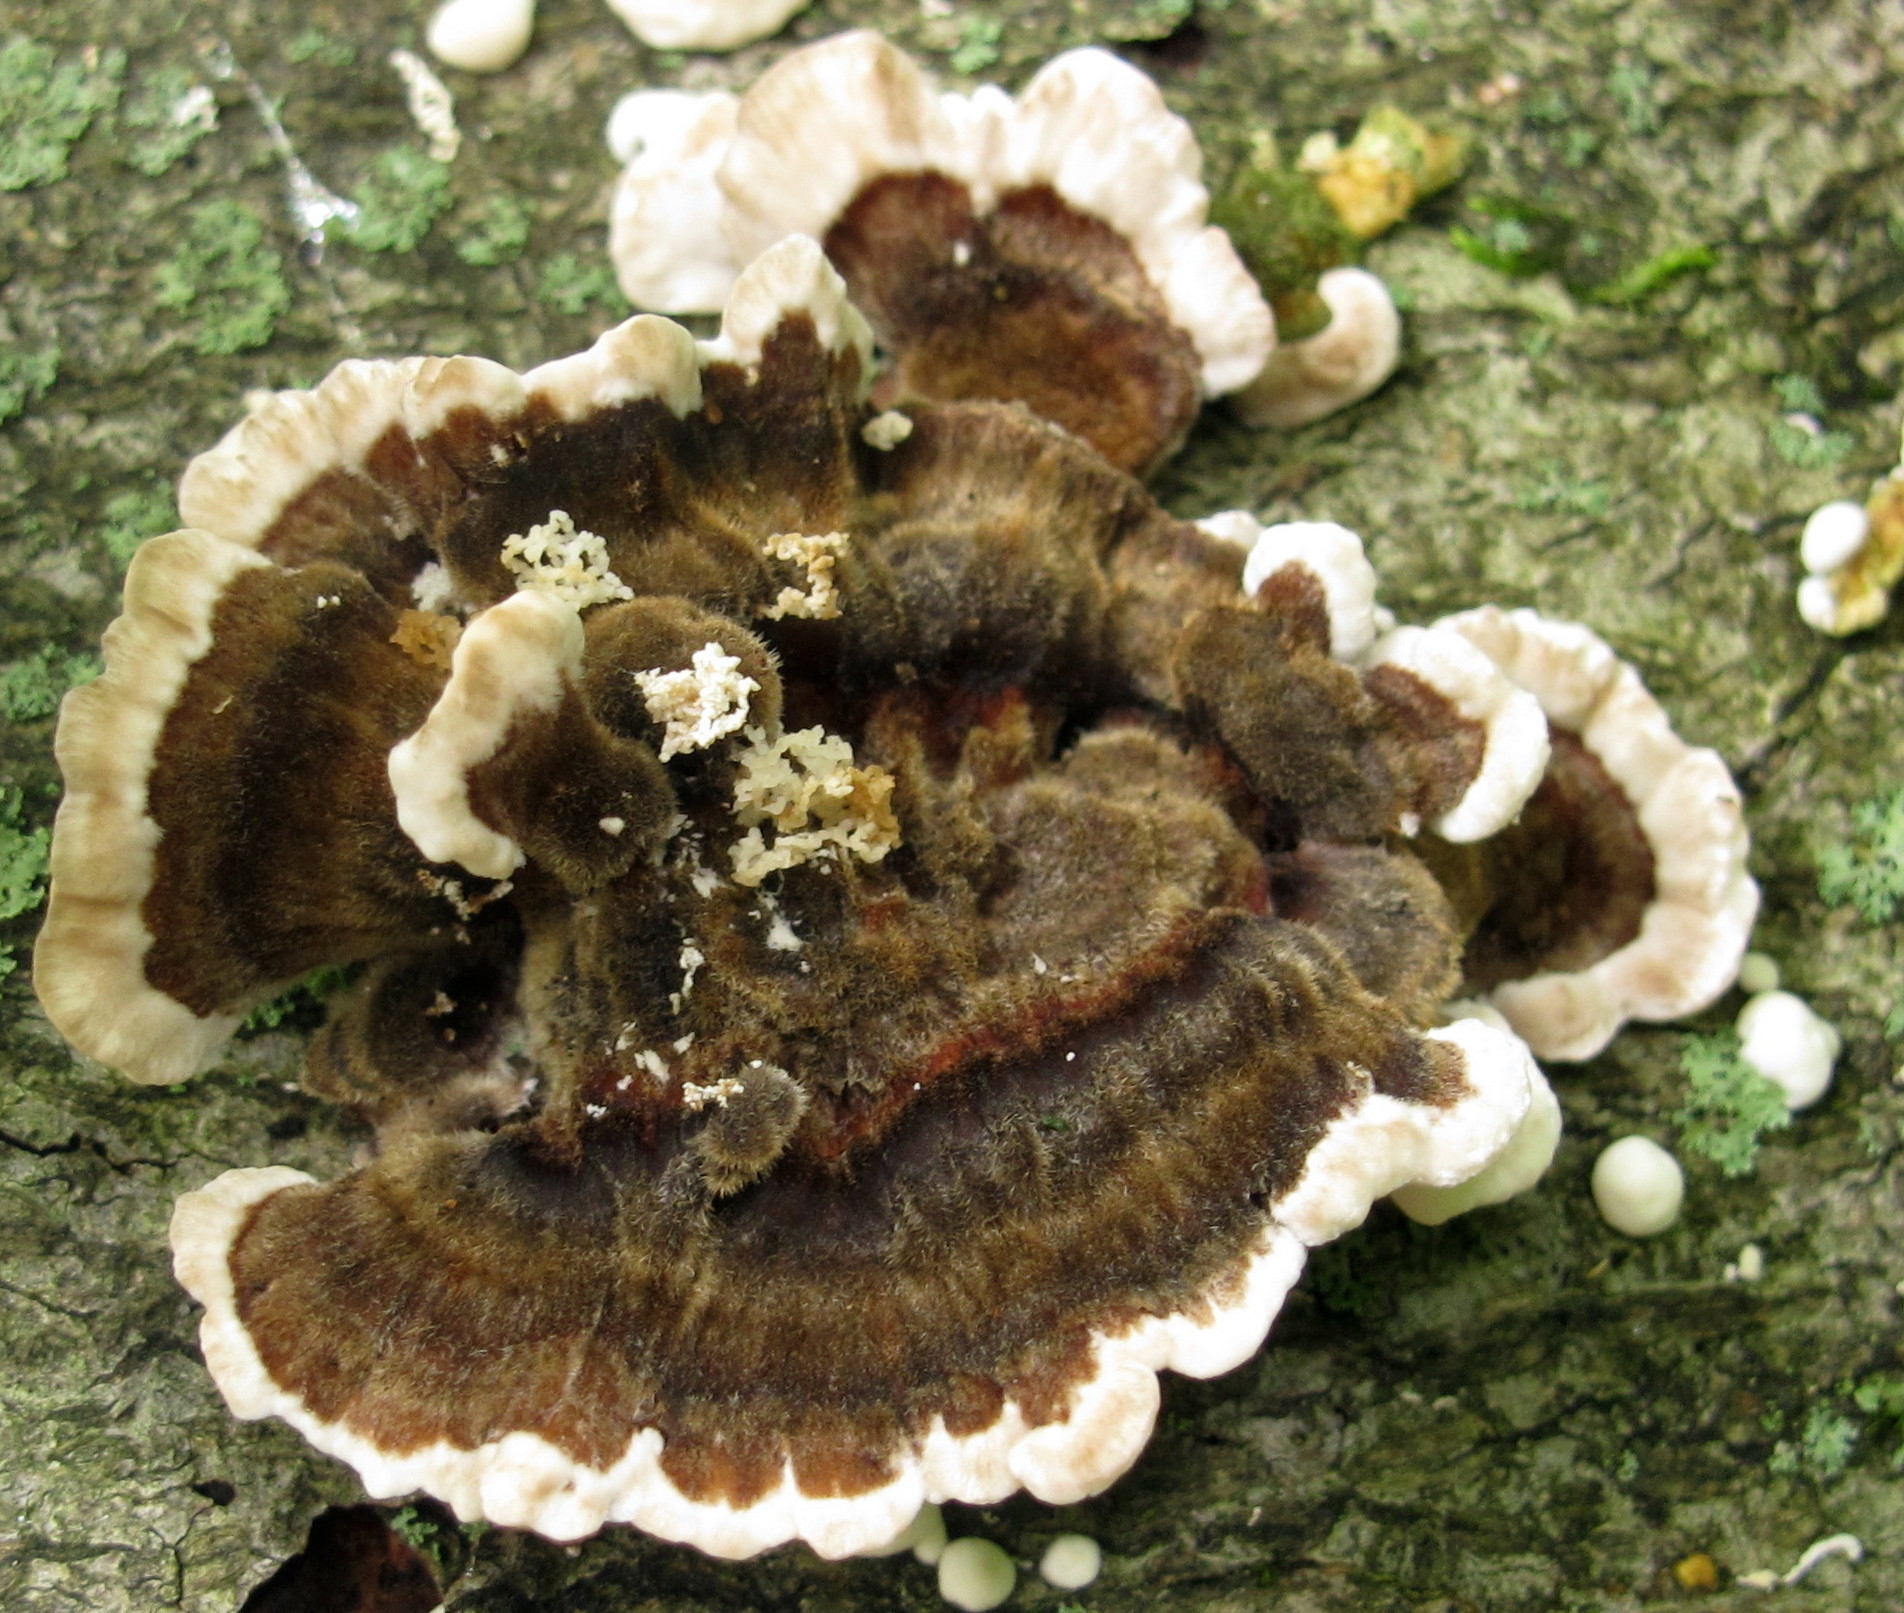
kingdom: Fungi
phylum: Basidiomycota
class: Agaricomycetes
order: Polyporales
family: Polyporaceae
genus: Trametes
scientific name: Trametes versicolor
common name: Turkeytail
